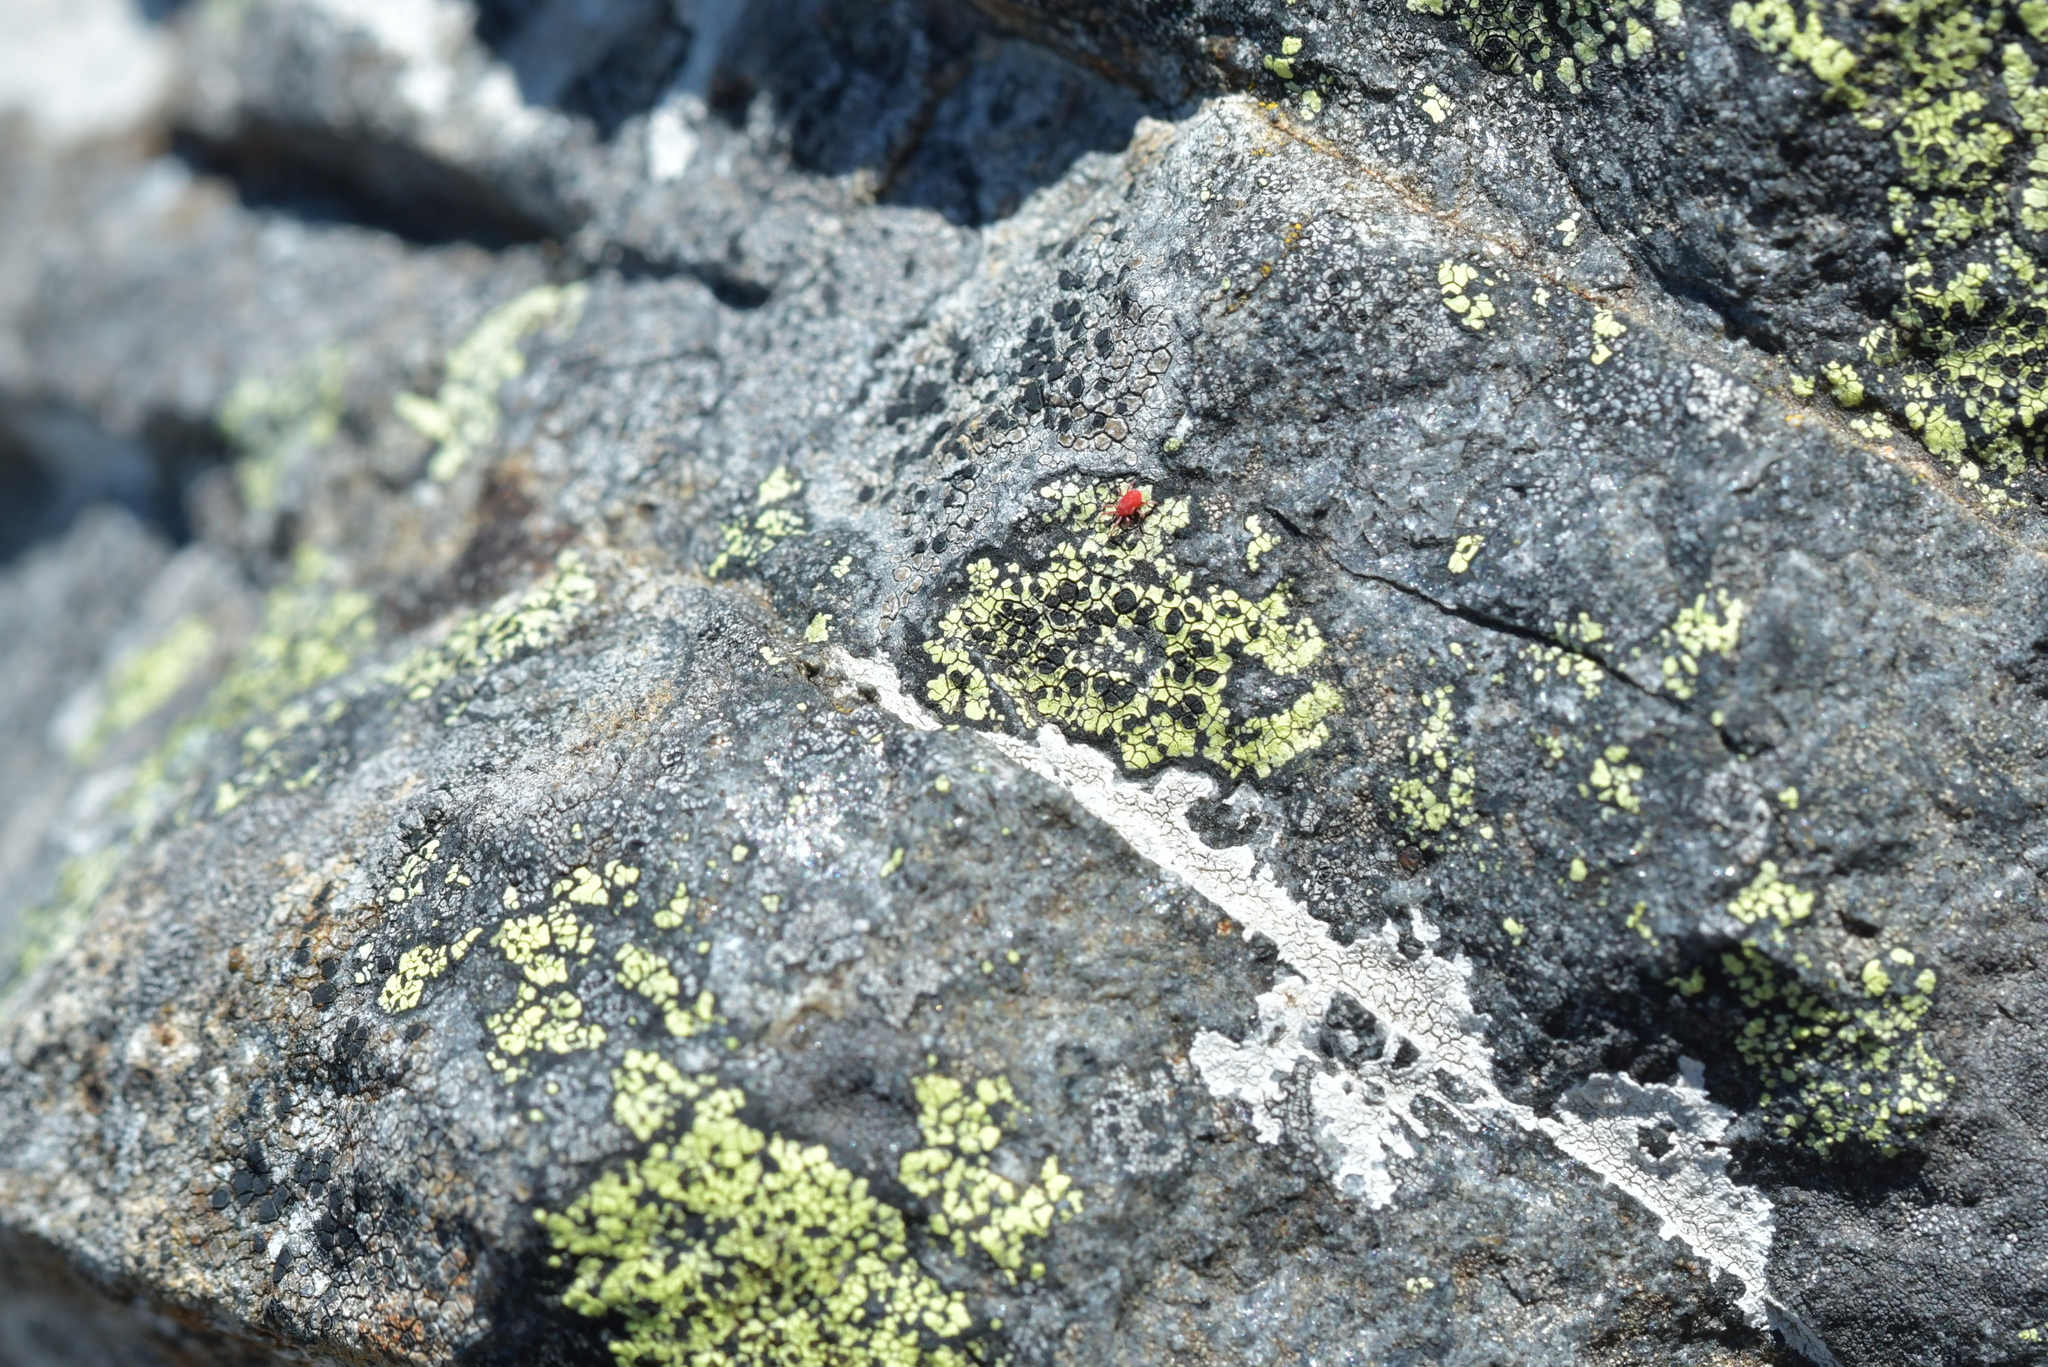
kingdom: Fungi
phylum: Ascomycota
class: Lecanoromycetes
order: Rhizocarpales
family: Rhizocarpaceae
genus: Rhizocarpon
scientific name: Rhizocarpon geographicum
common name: Yellow map lichen
